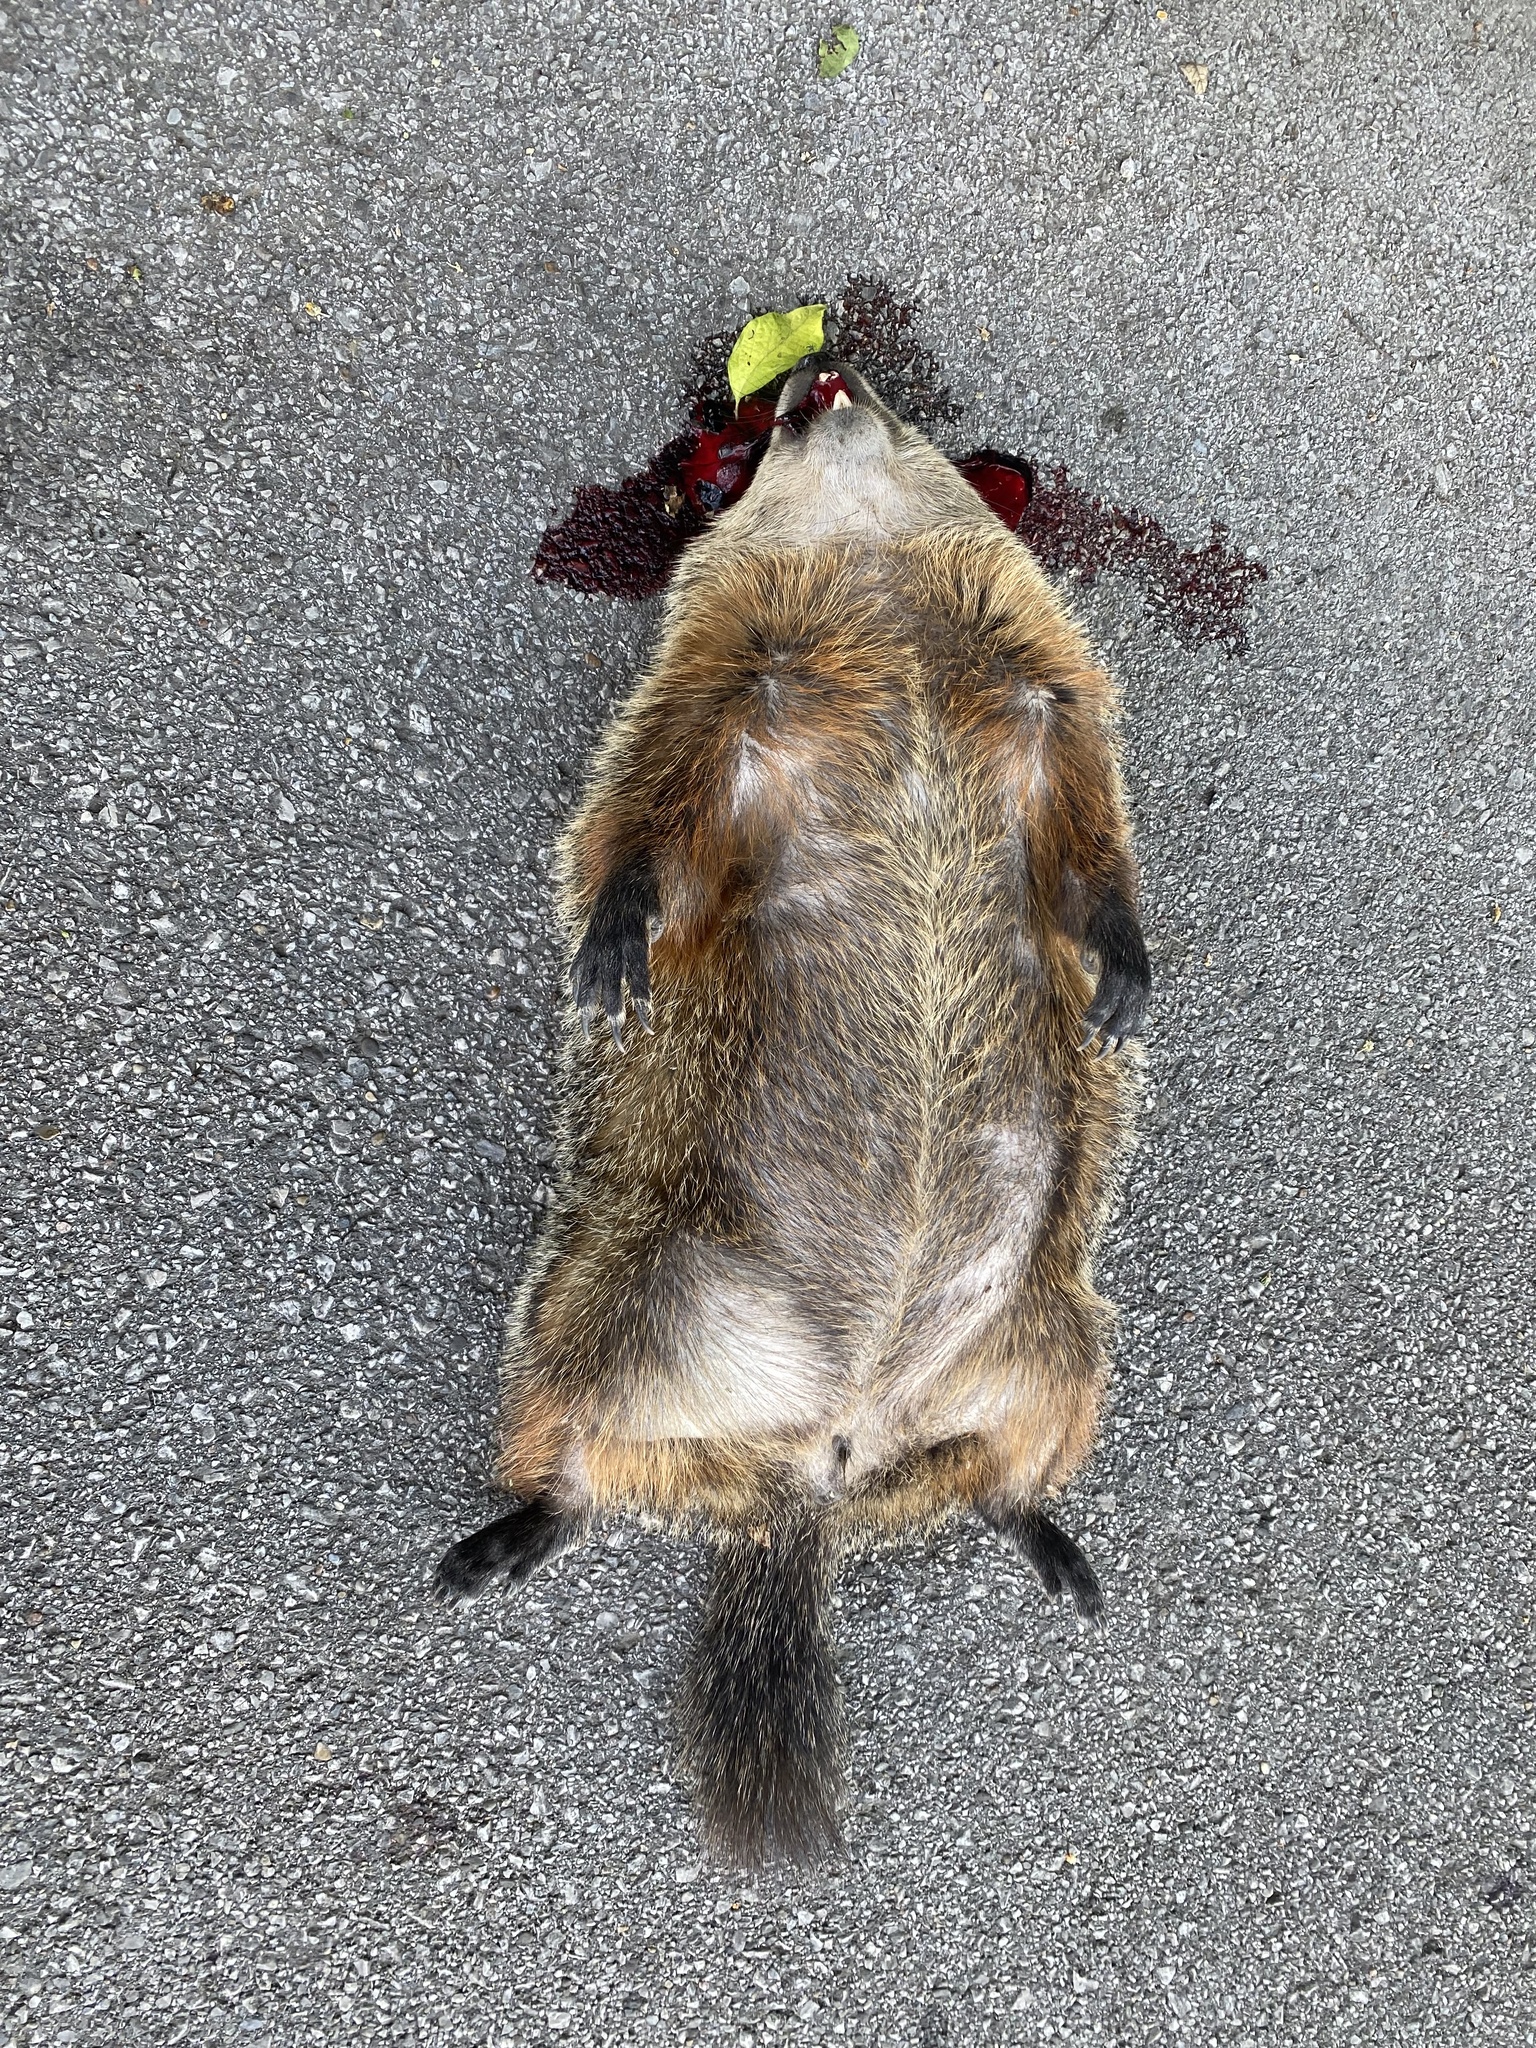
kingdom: Animalia
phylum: Chordata
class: Mammalia
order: Rodentia
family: Sciuridae
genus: Marmota
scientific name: Marmota monax
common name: Groundhog
